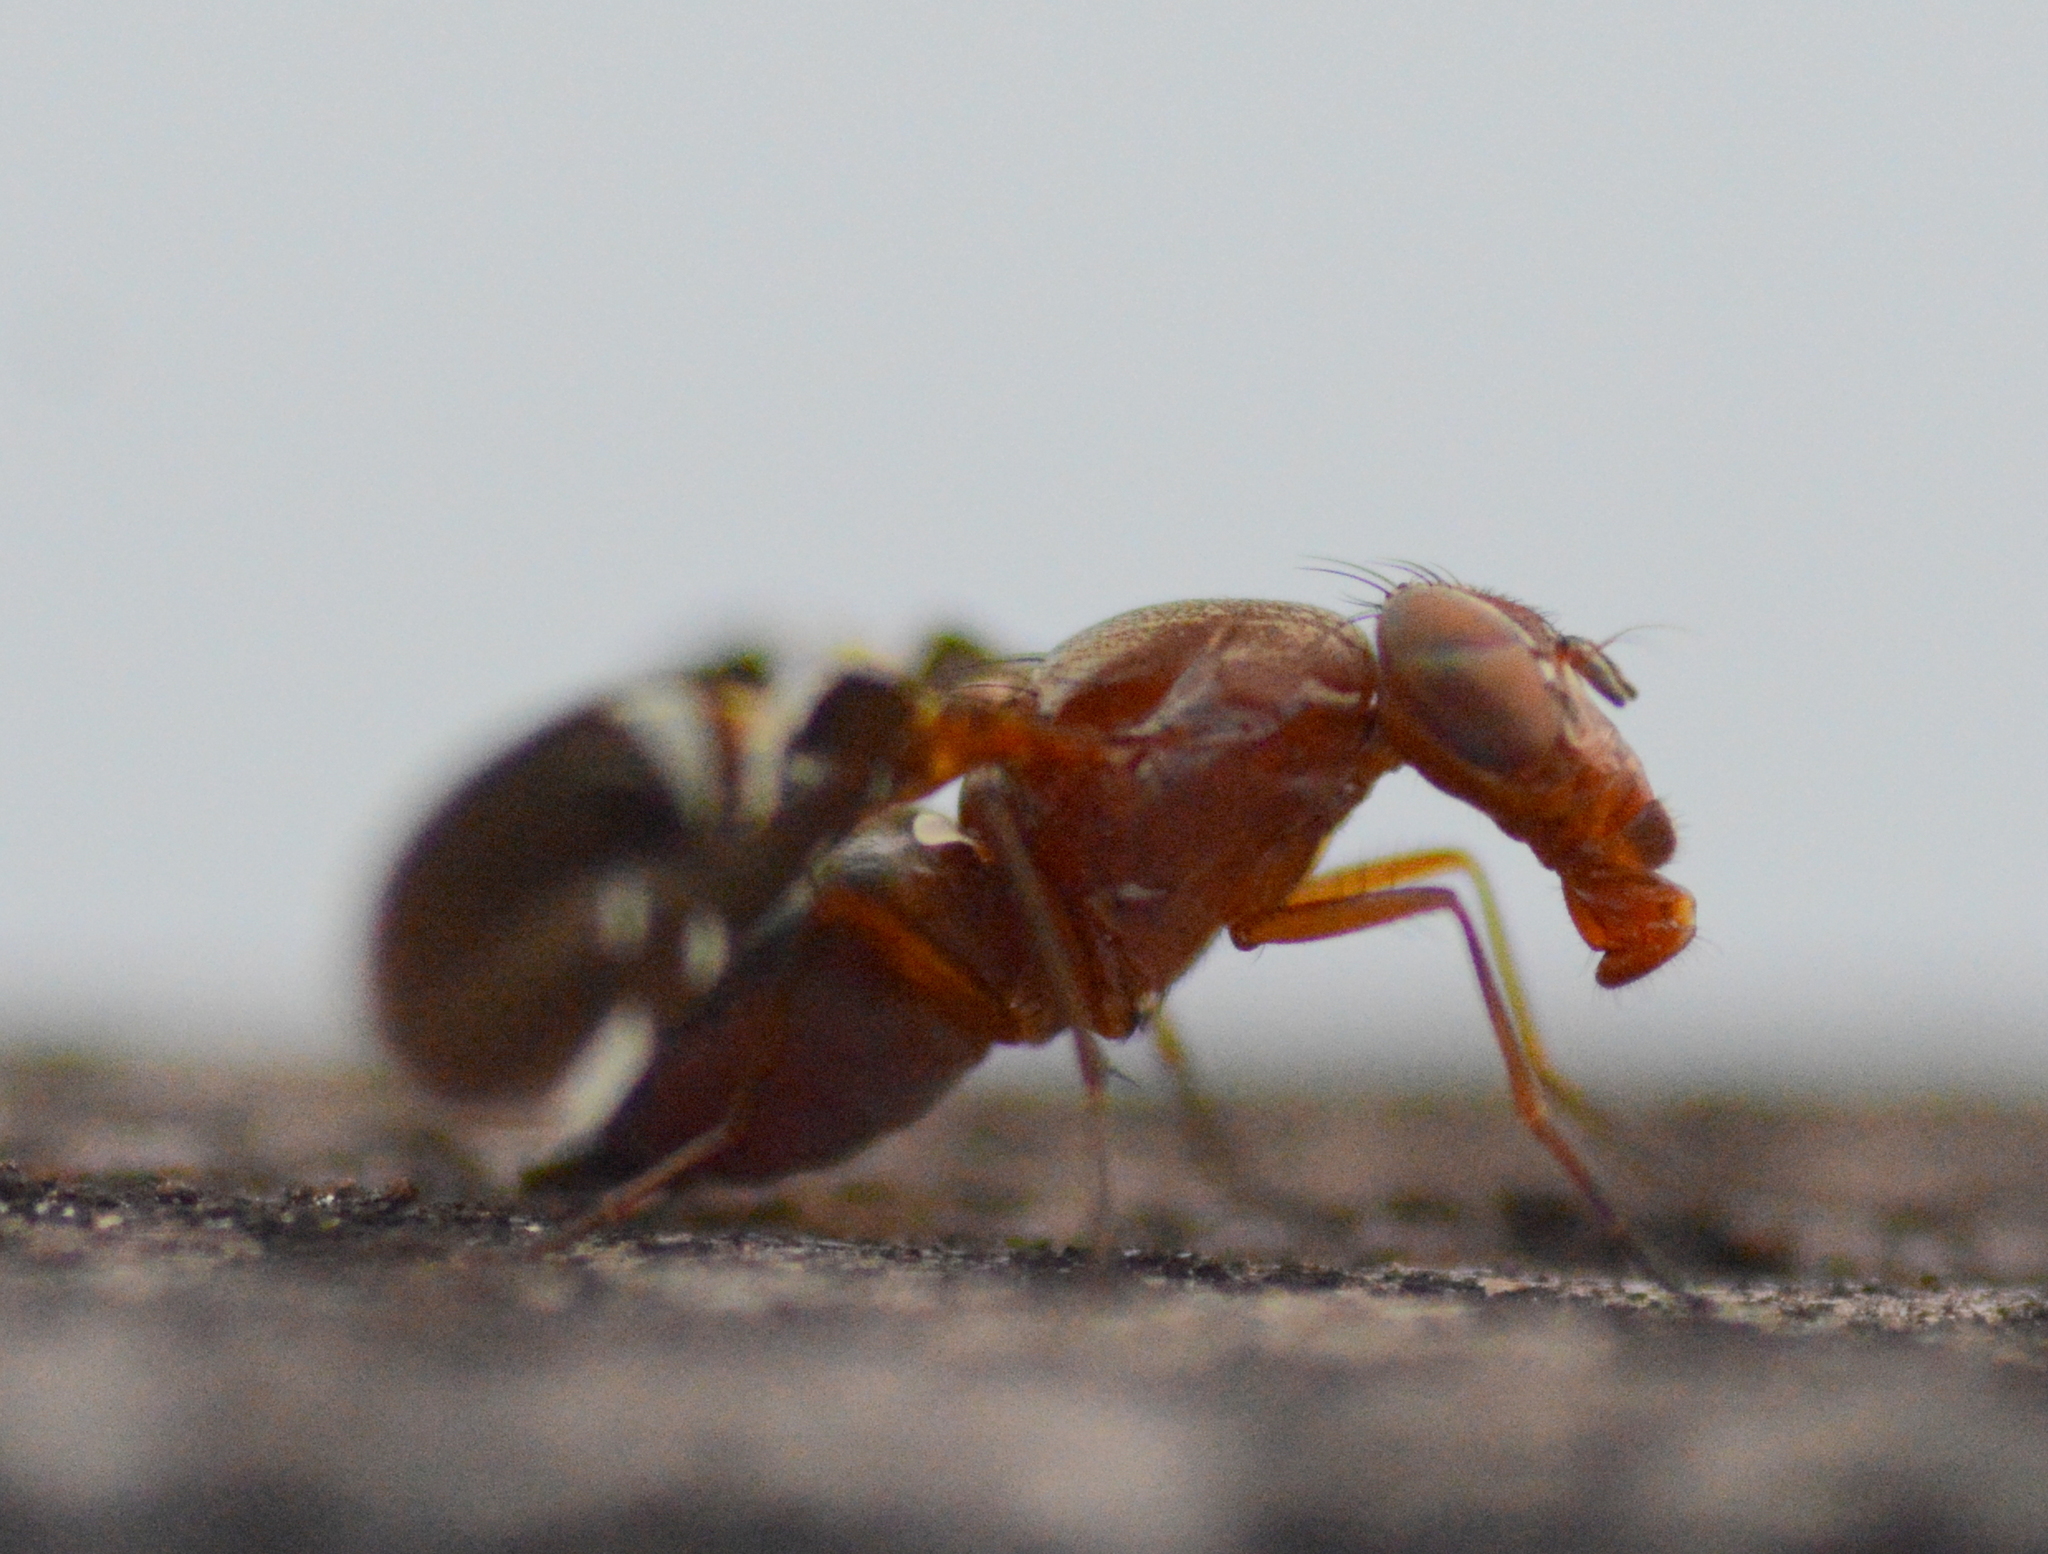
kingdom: Animalia
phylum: Arthropoda
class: Insecta
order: Diptera
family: Ulidiidae
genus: Delphinia
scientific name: Delphinia picta
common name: Common picture-winged fly
